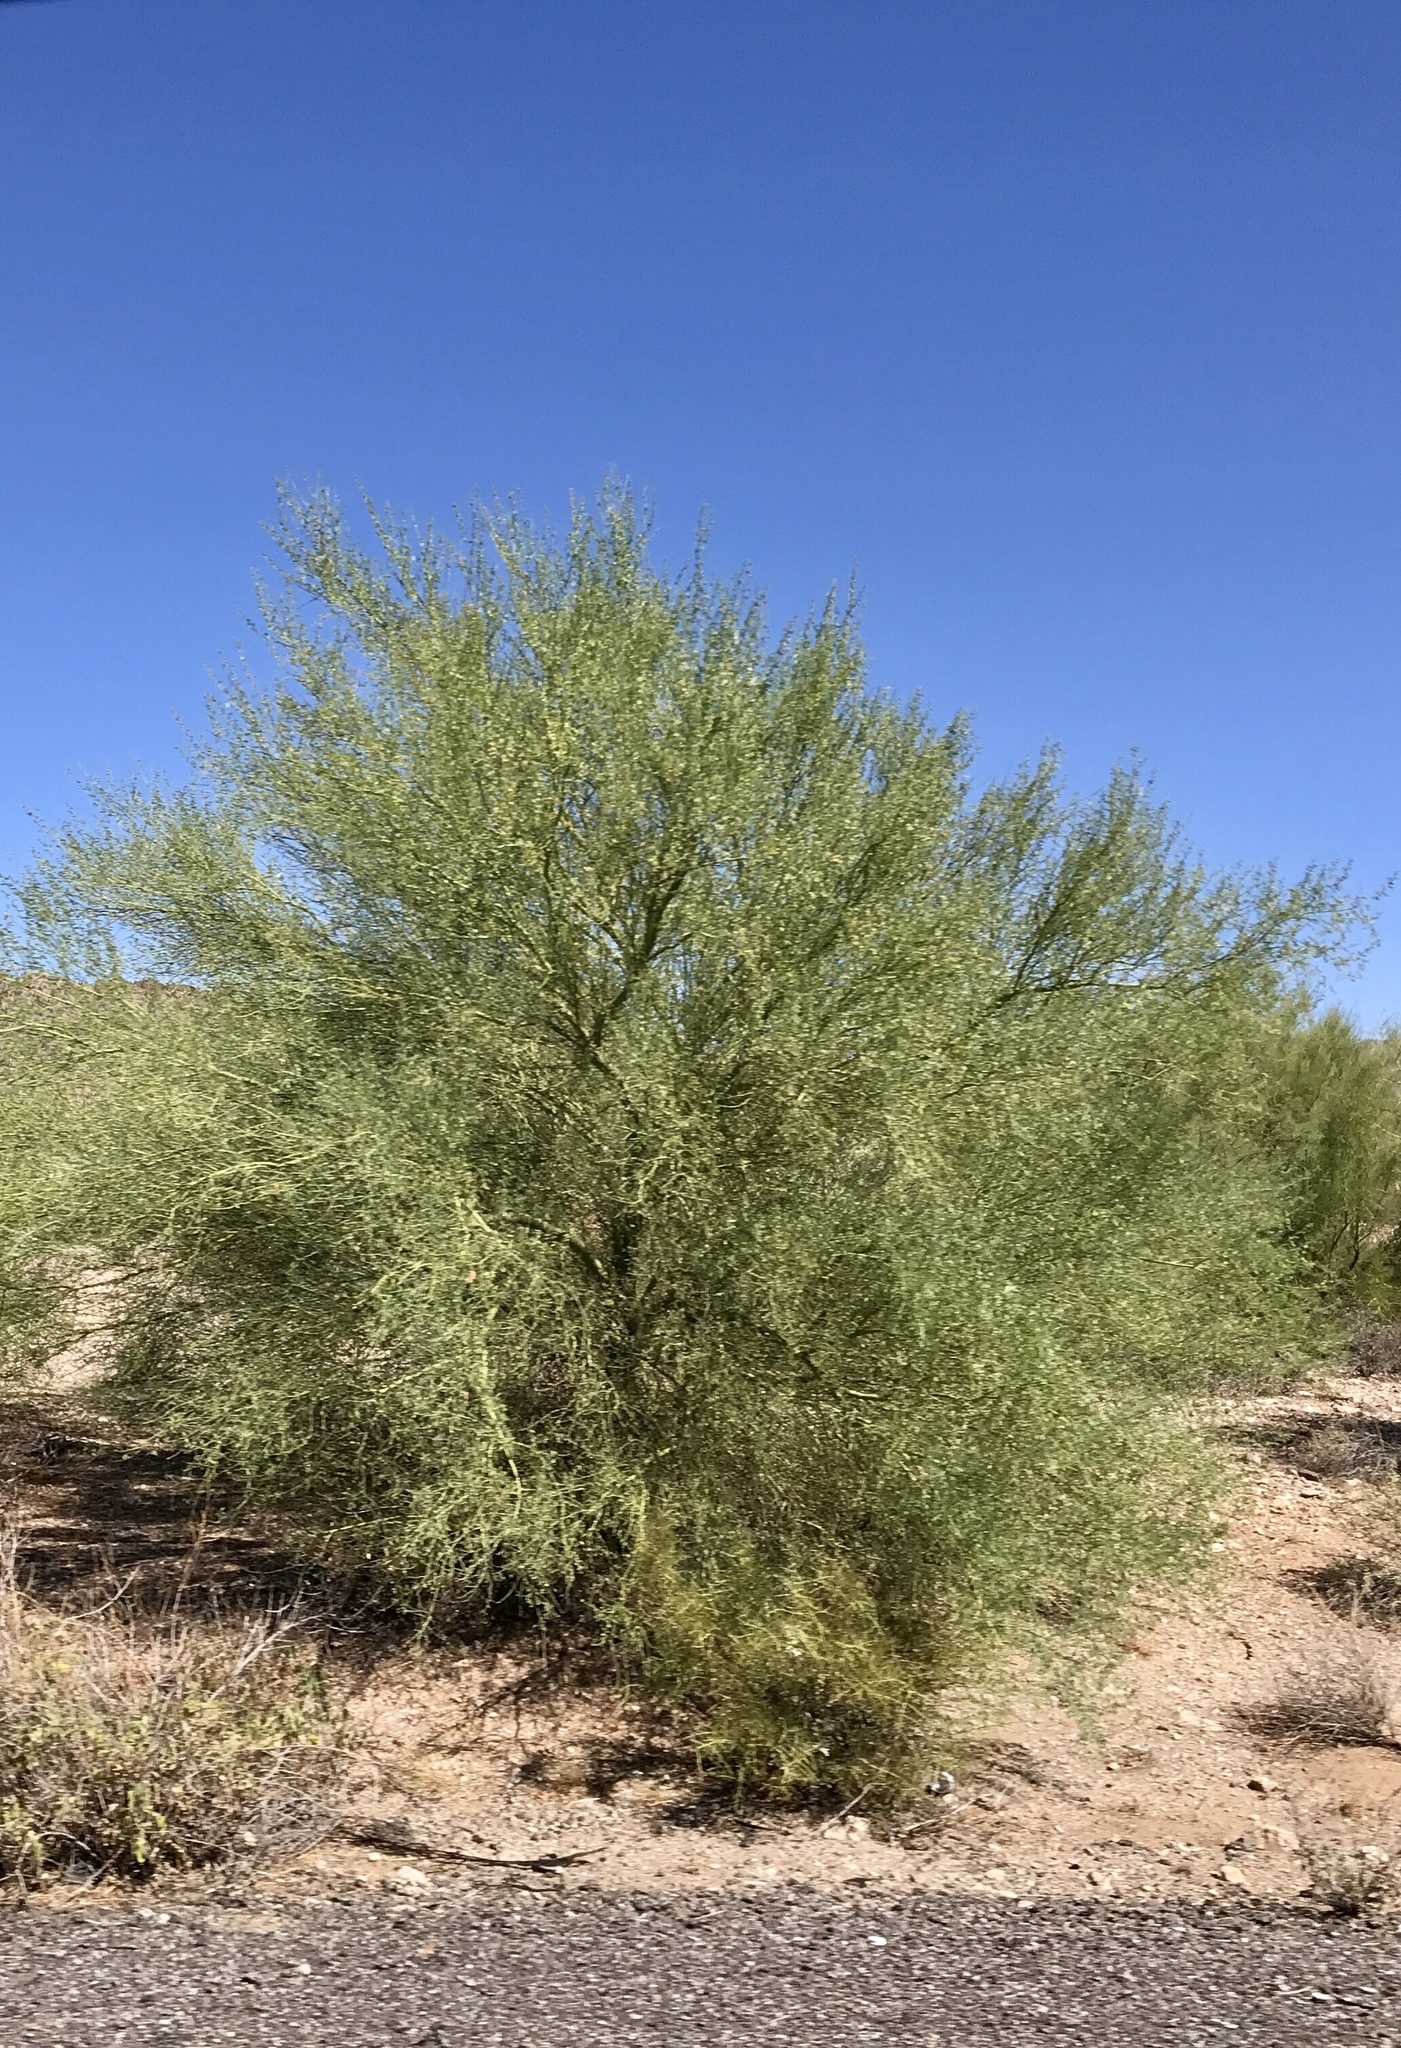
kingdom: Plantae
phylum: Tracheophyta
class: Magnoliopsida
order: Fabales
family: Fabaceae
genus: Parkinsonia
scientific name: Parkinsonia florida
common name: Blue paloverde
